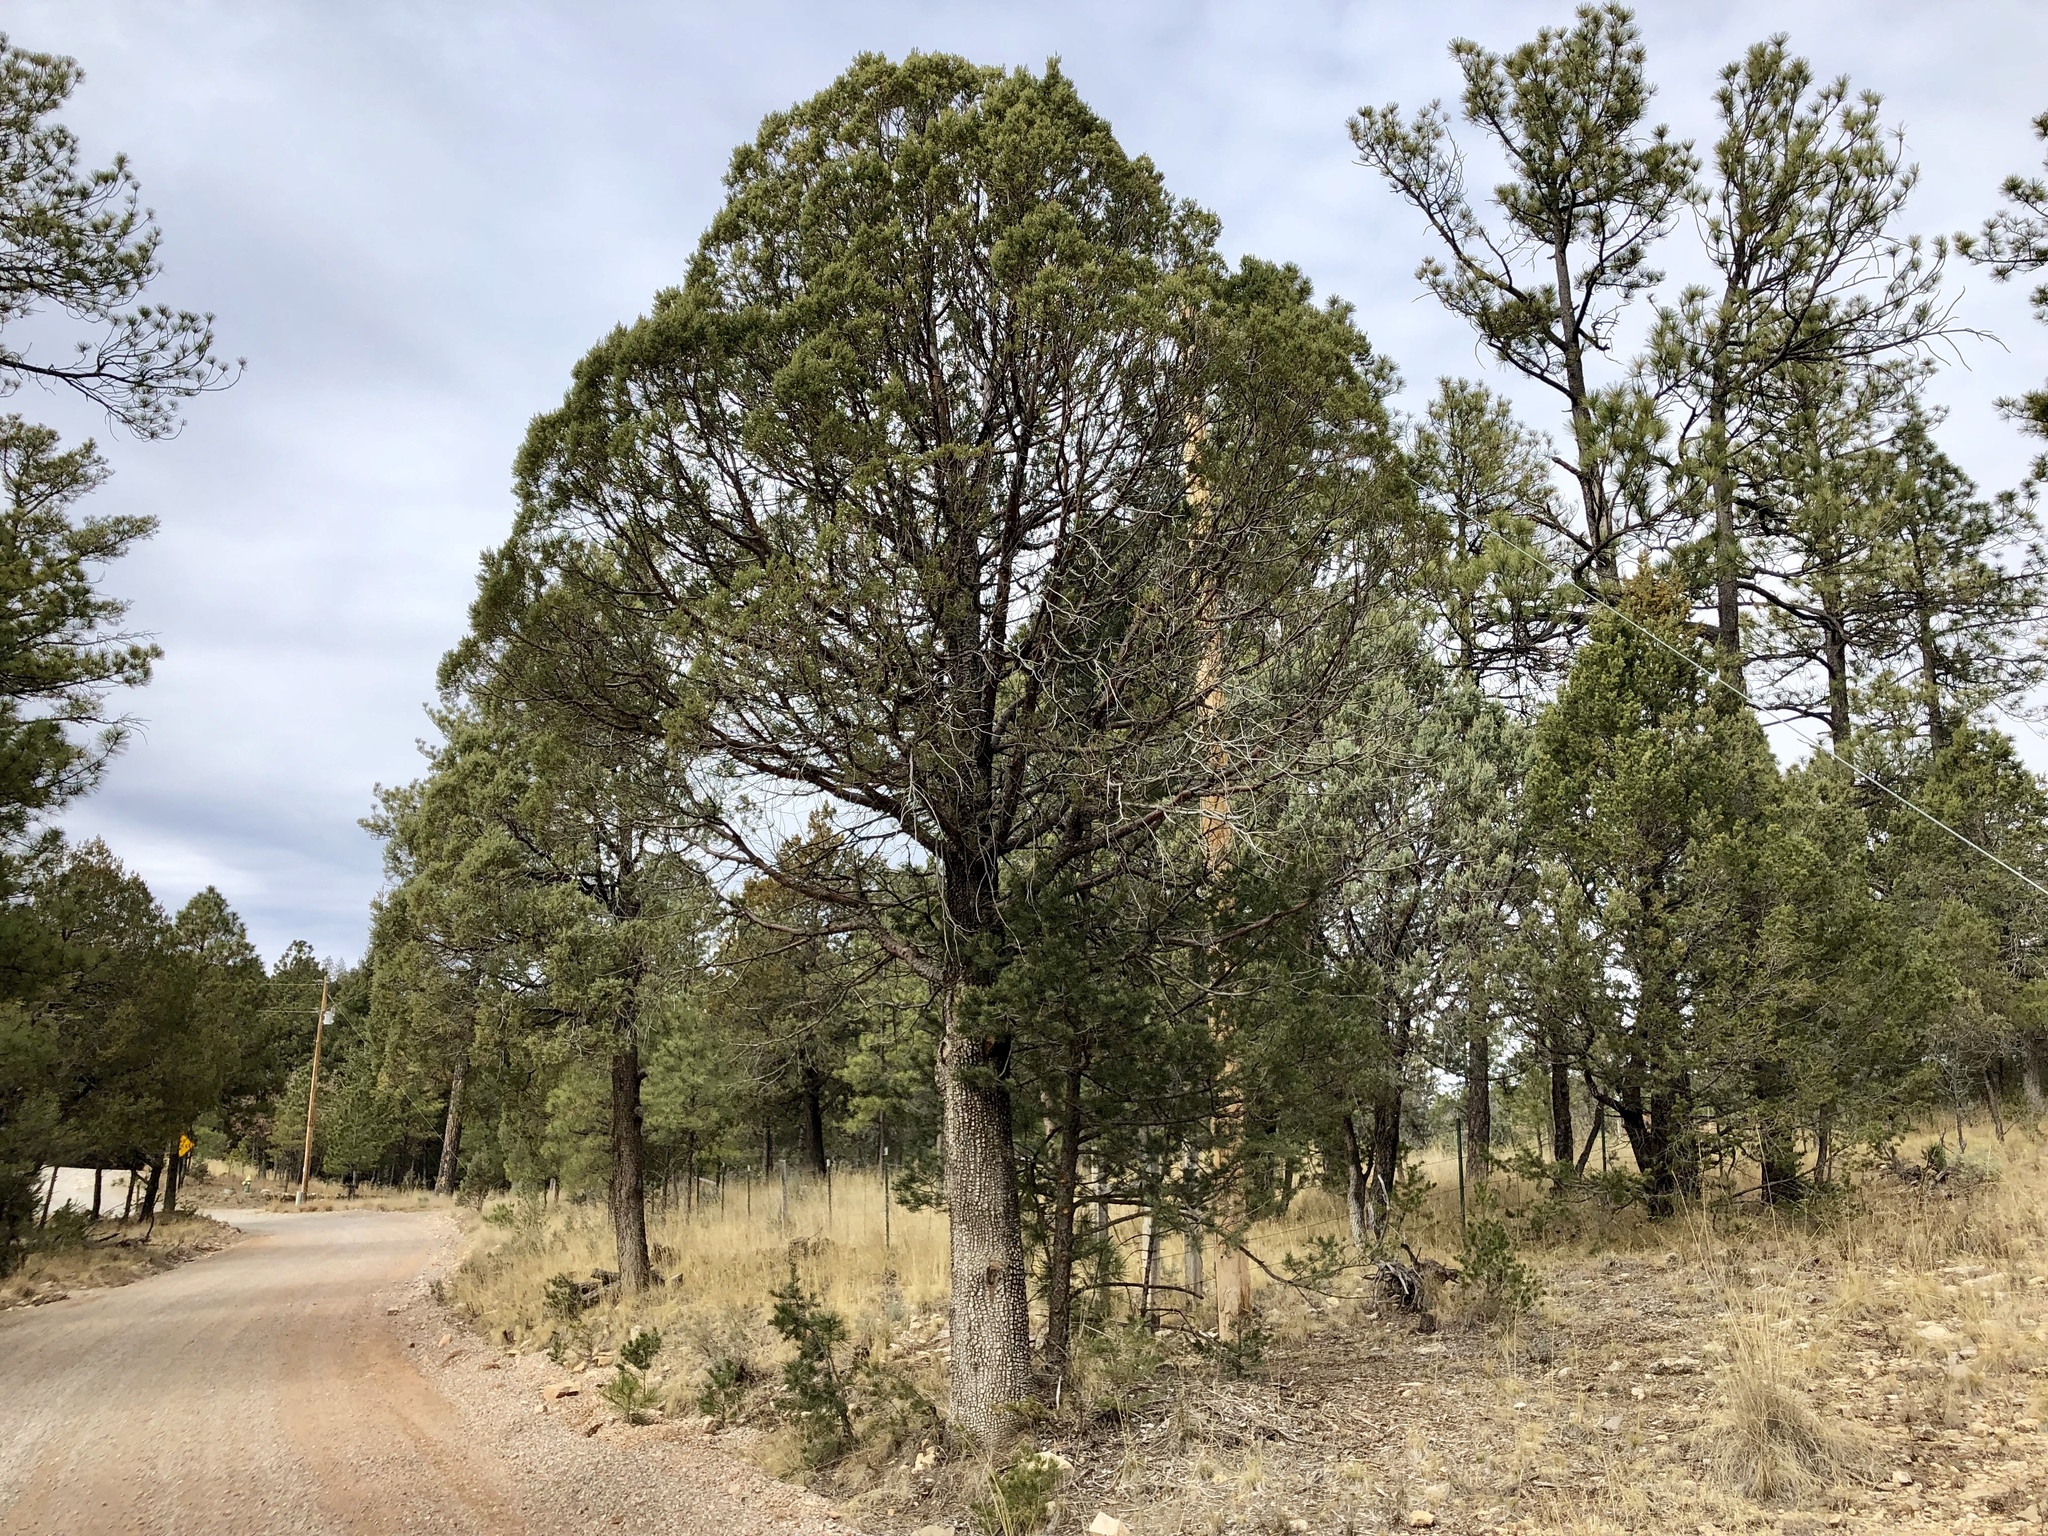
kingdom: Plantae
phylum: Tracheophyta
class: Pinopsida
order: Pinales
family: Cupressaceae
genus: Juniperus
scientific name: Juniperus deppeana
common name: Alligator juniper
